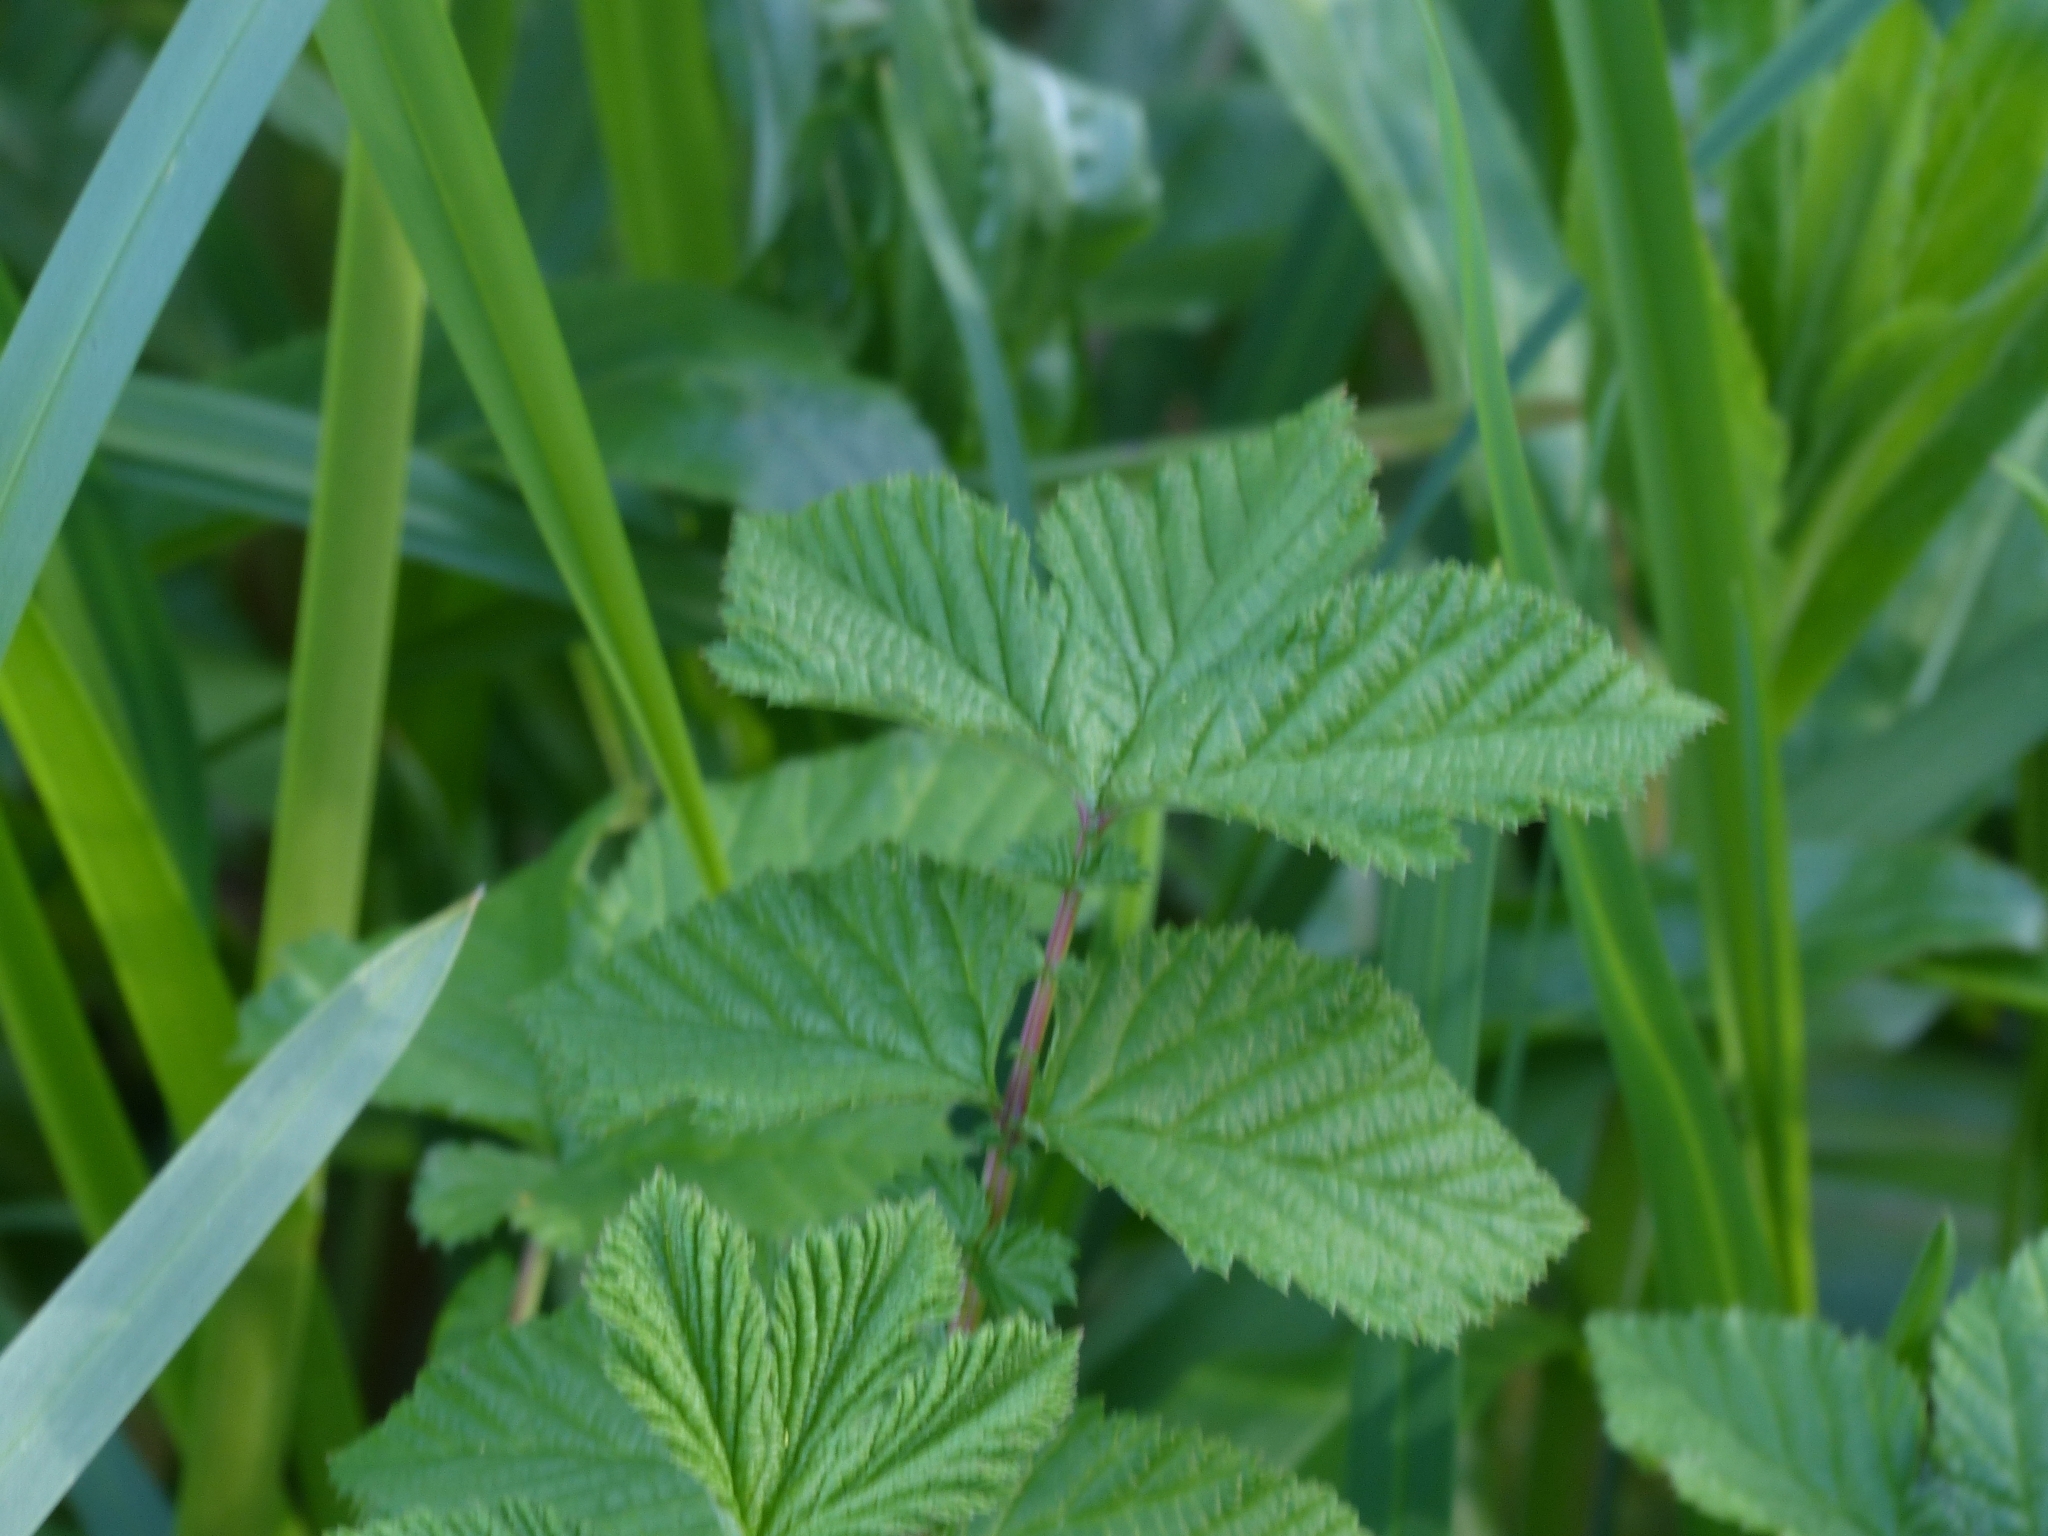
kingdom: Plantae
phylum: Tracheophyta
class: Magnoliopsida
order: Rosales
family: Rosaceae
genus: Filipendula
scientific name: Filipendula ulmaria
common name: Meadowsweet
